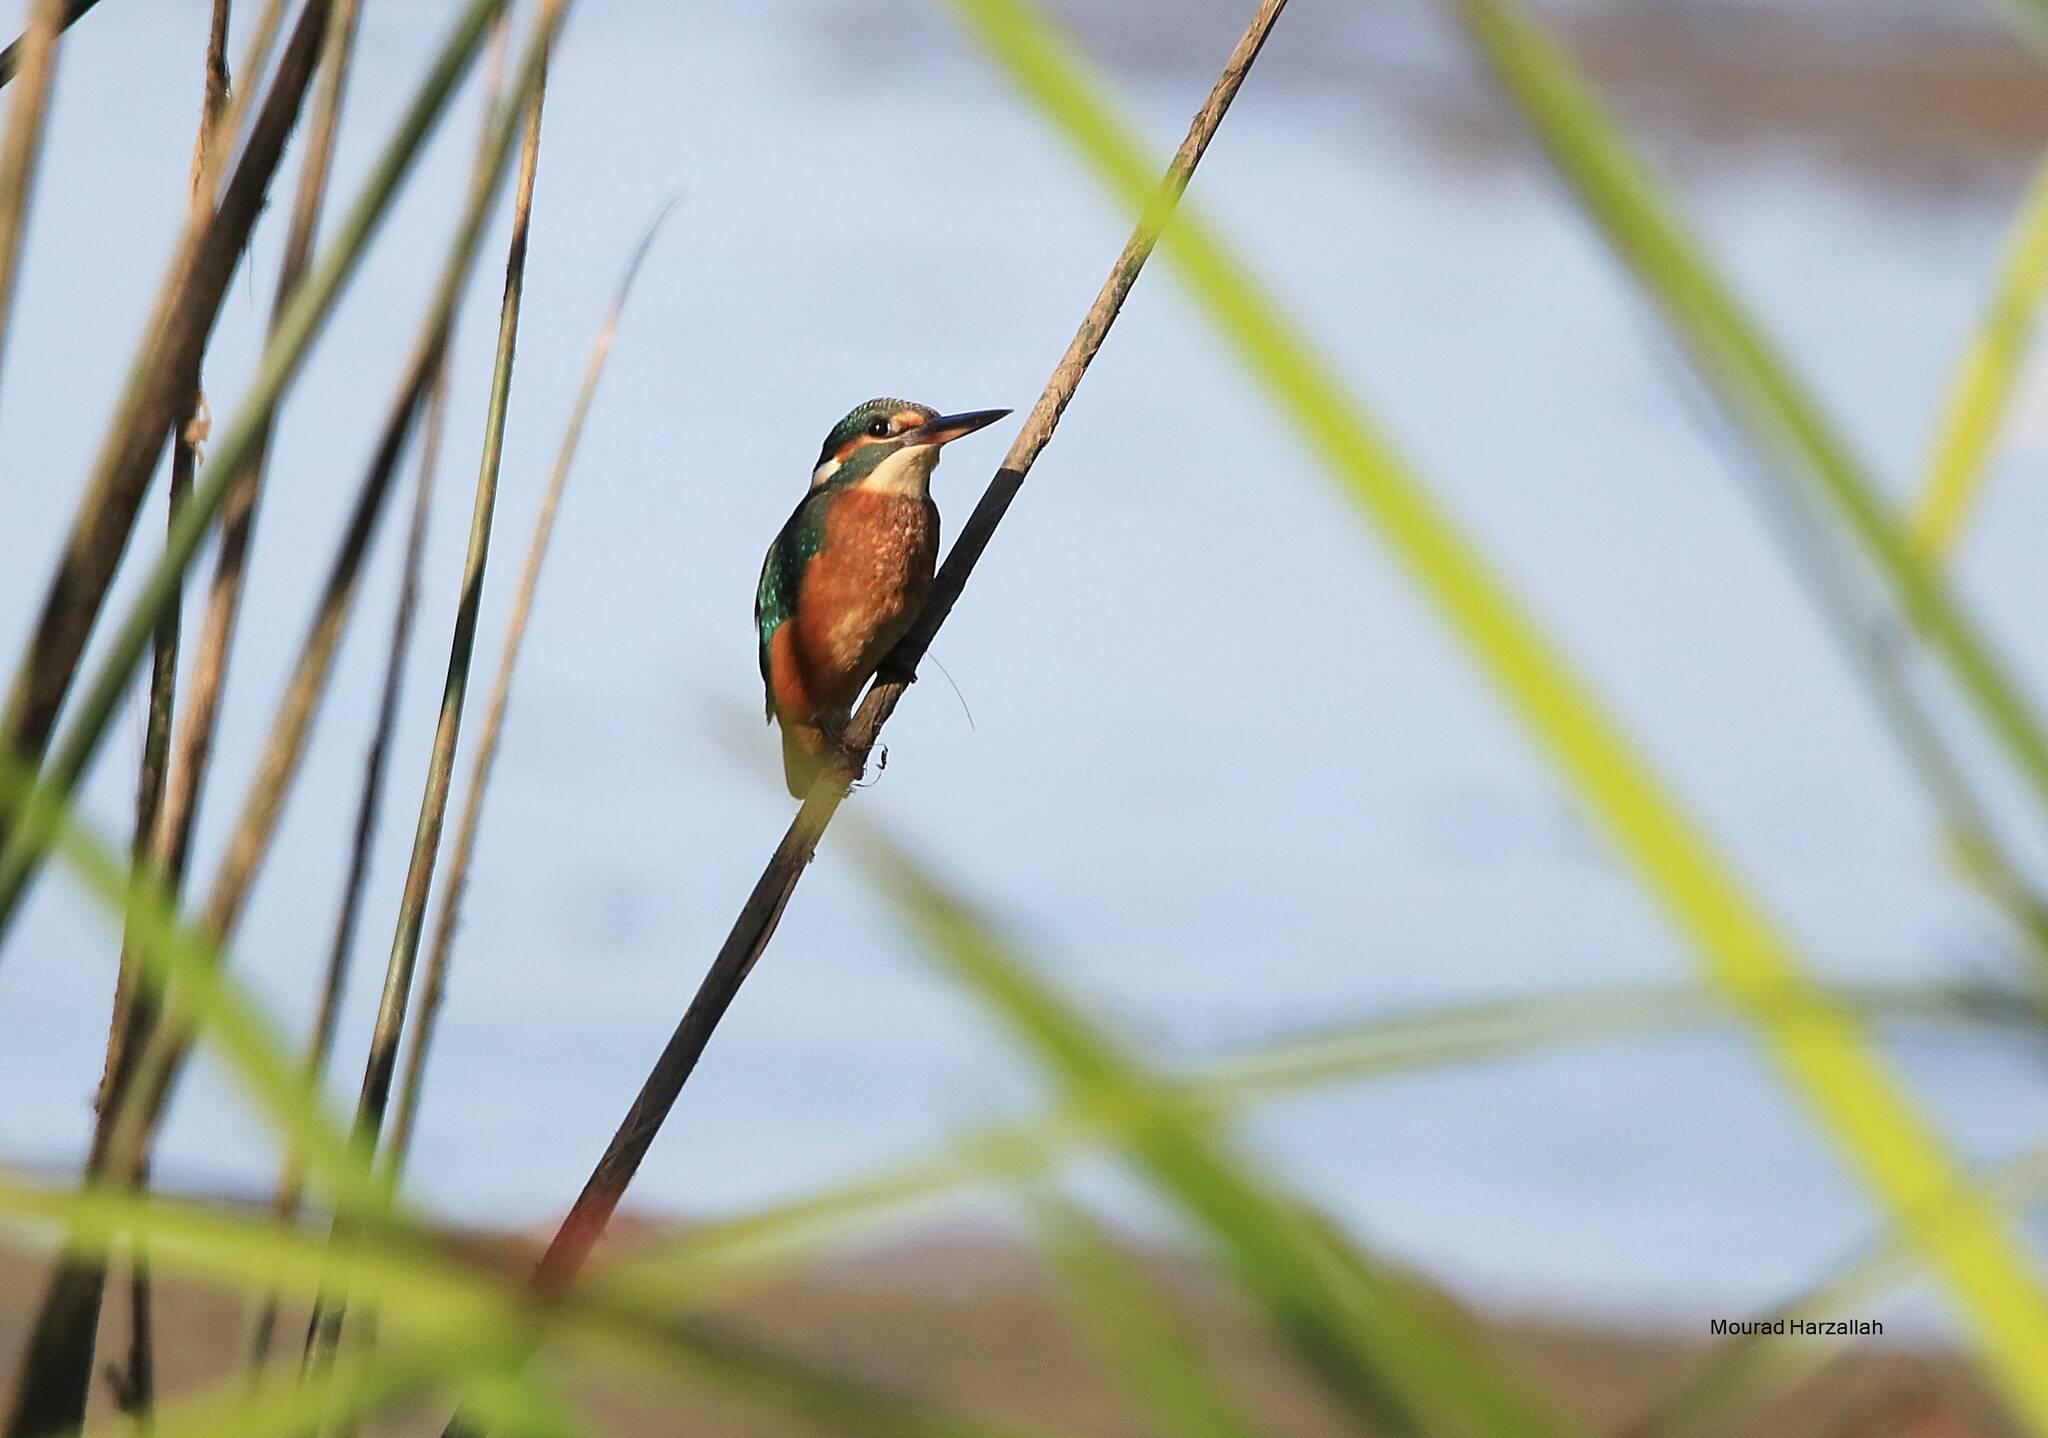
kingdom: Animalia
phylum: Chordata
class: Aves
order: Coraciiformes
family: Alcedinidae
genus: Alcedo
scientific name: Alcedo atthis
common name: Common kingfisher
